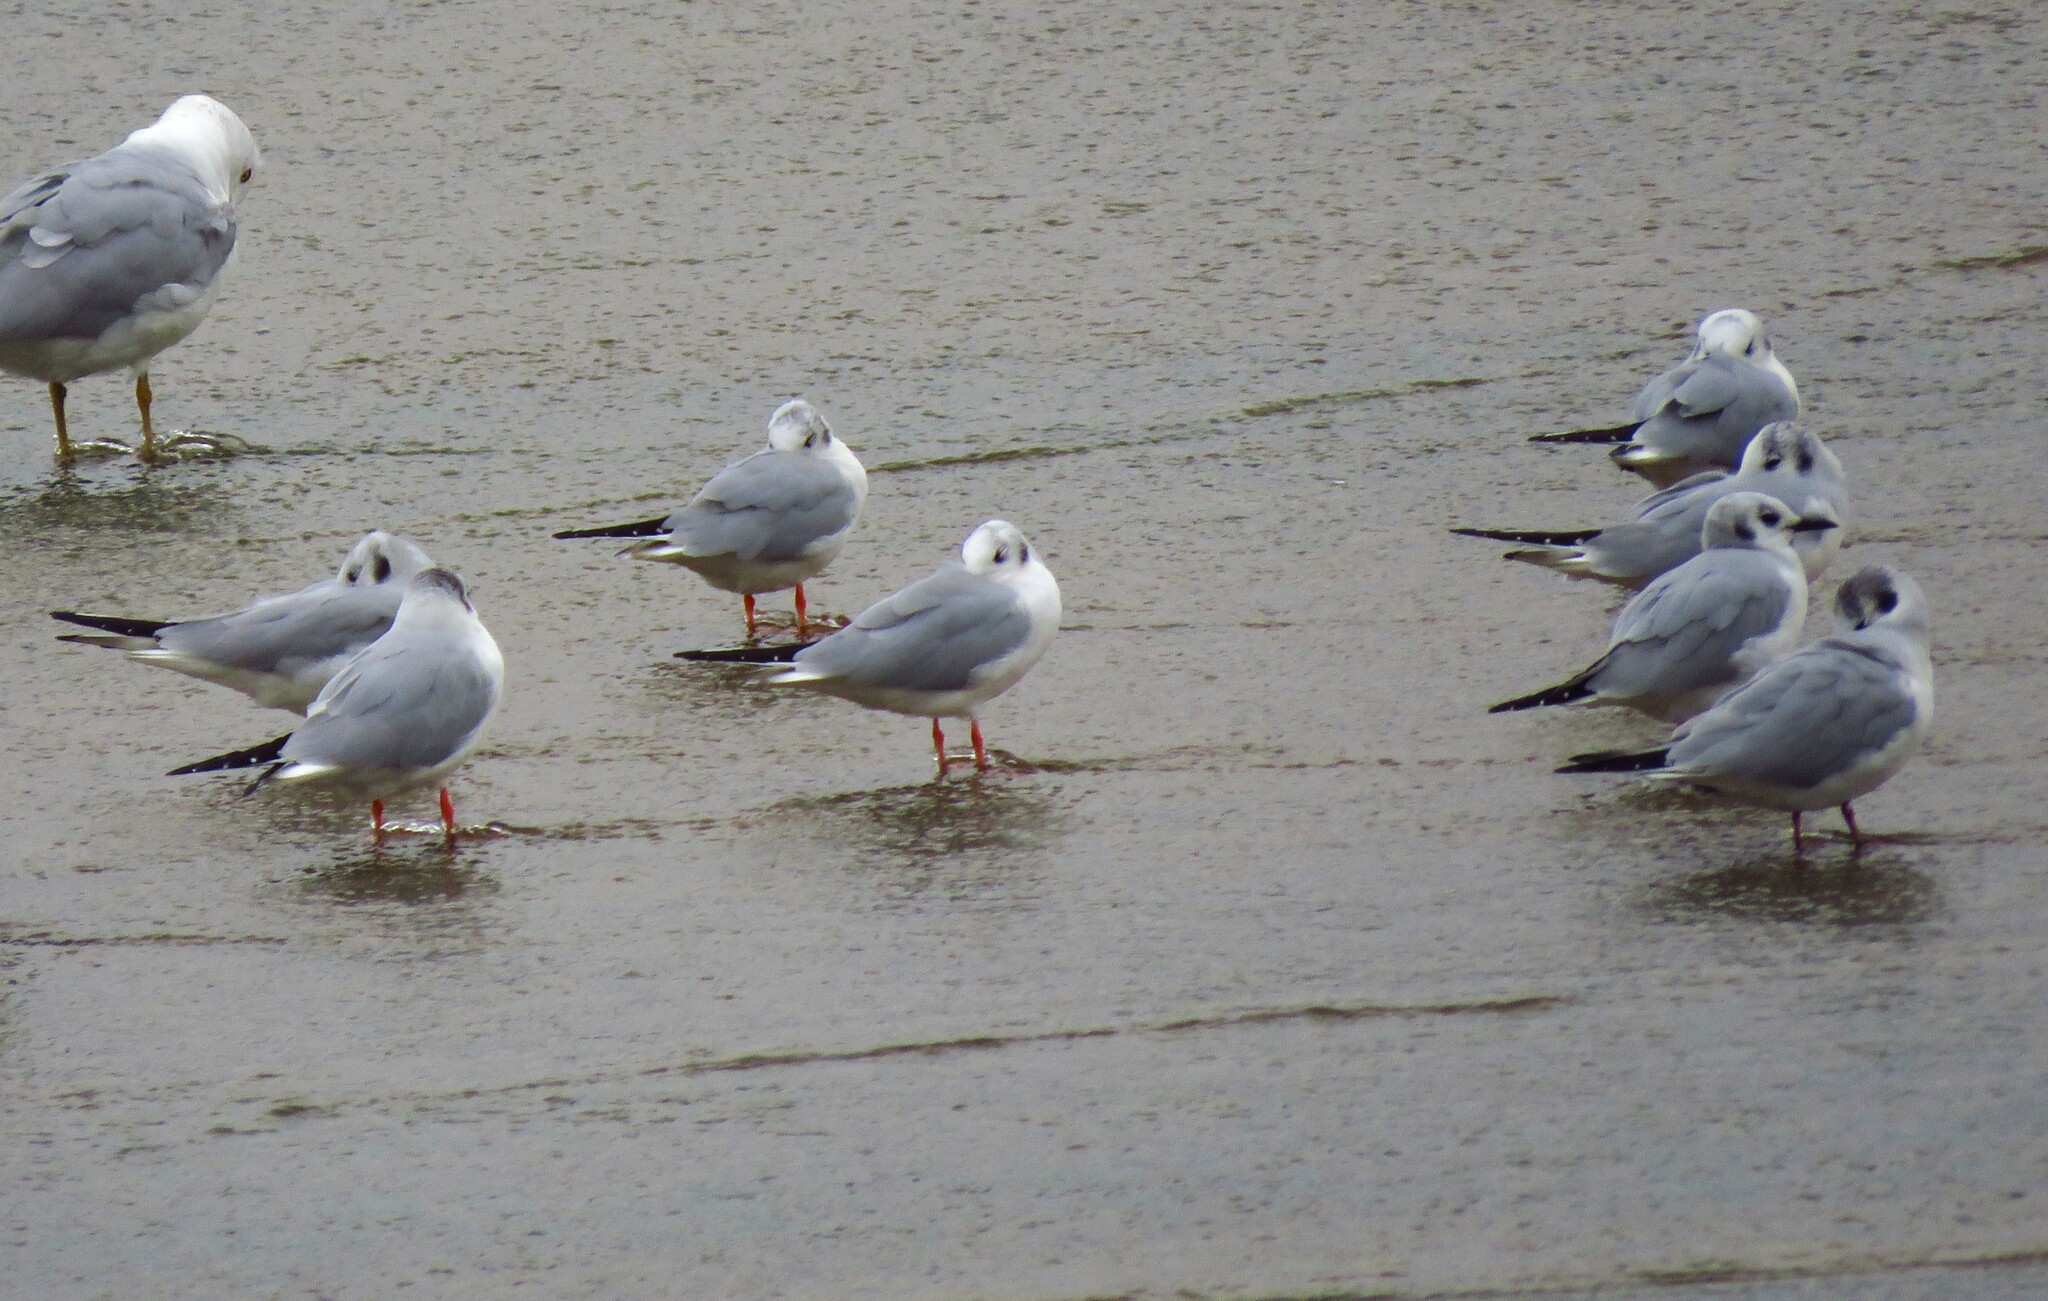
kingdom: Animalia
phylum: Chordata
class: Aves
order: Charadriiformes
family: Laridae
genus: Chroicocephalus
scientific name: Chroicocephalus philadelphia
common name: Bonaparte's gull
